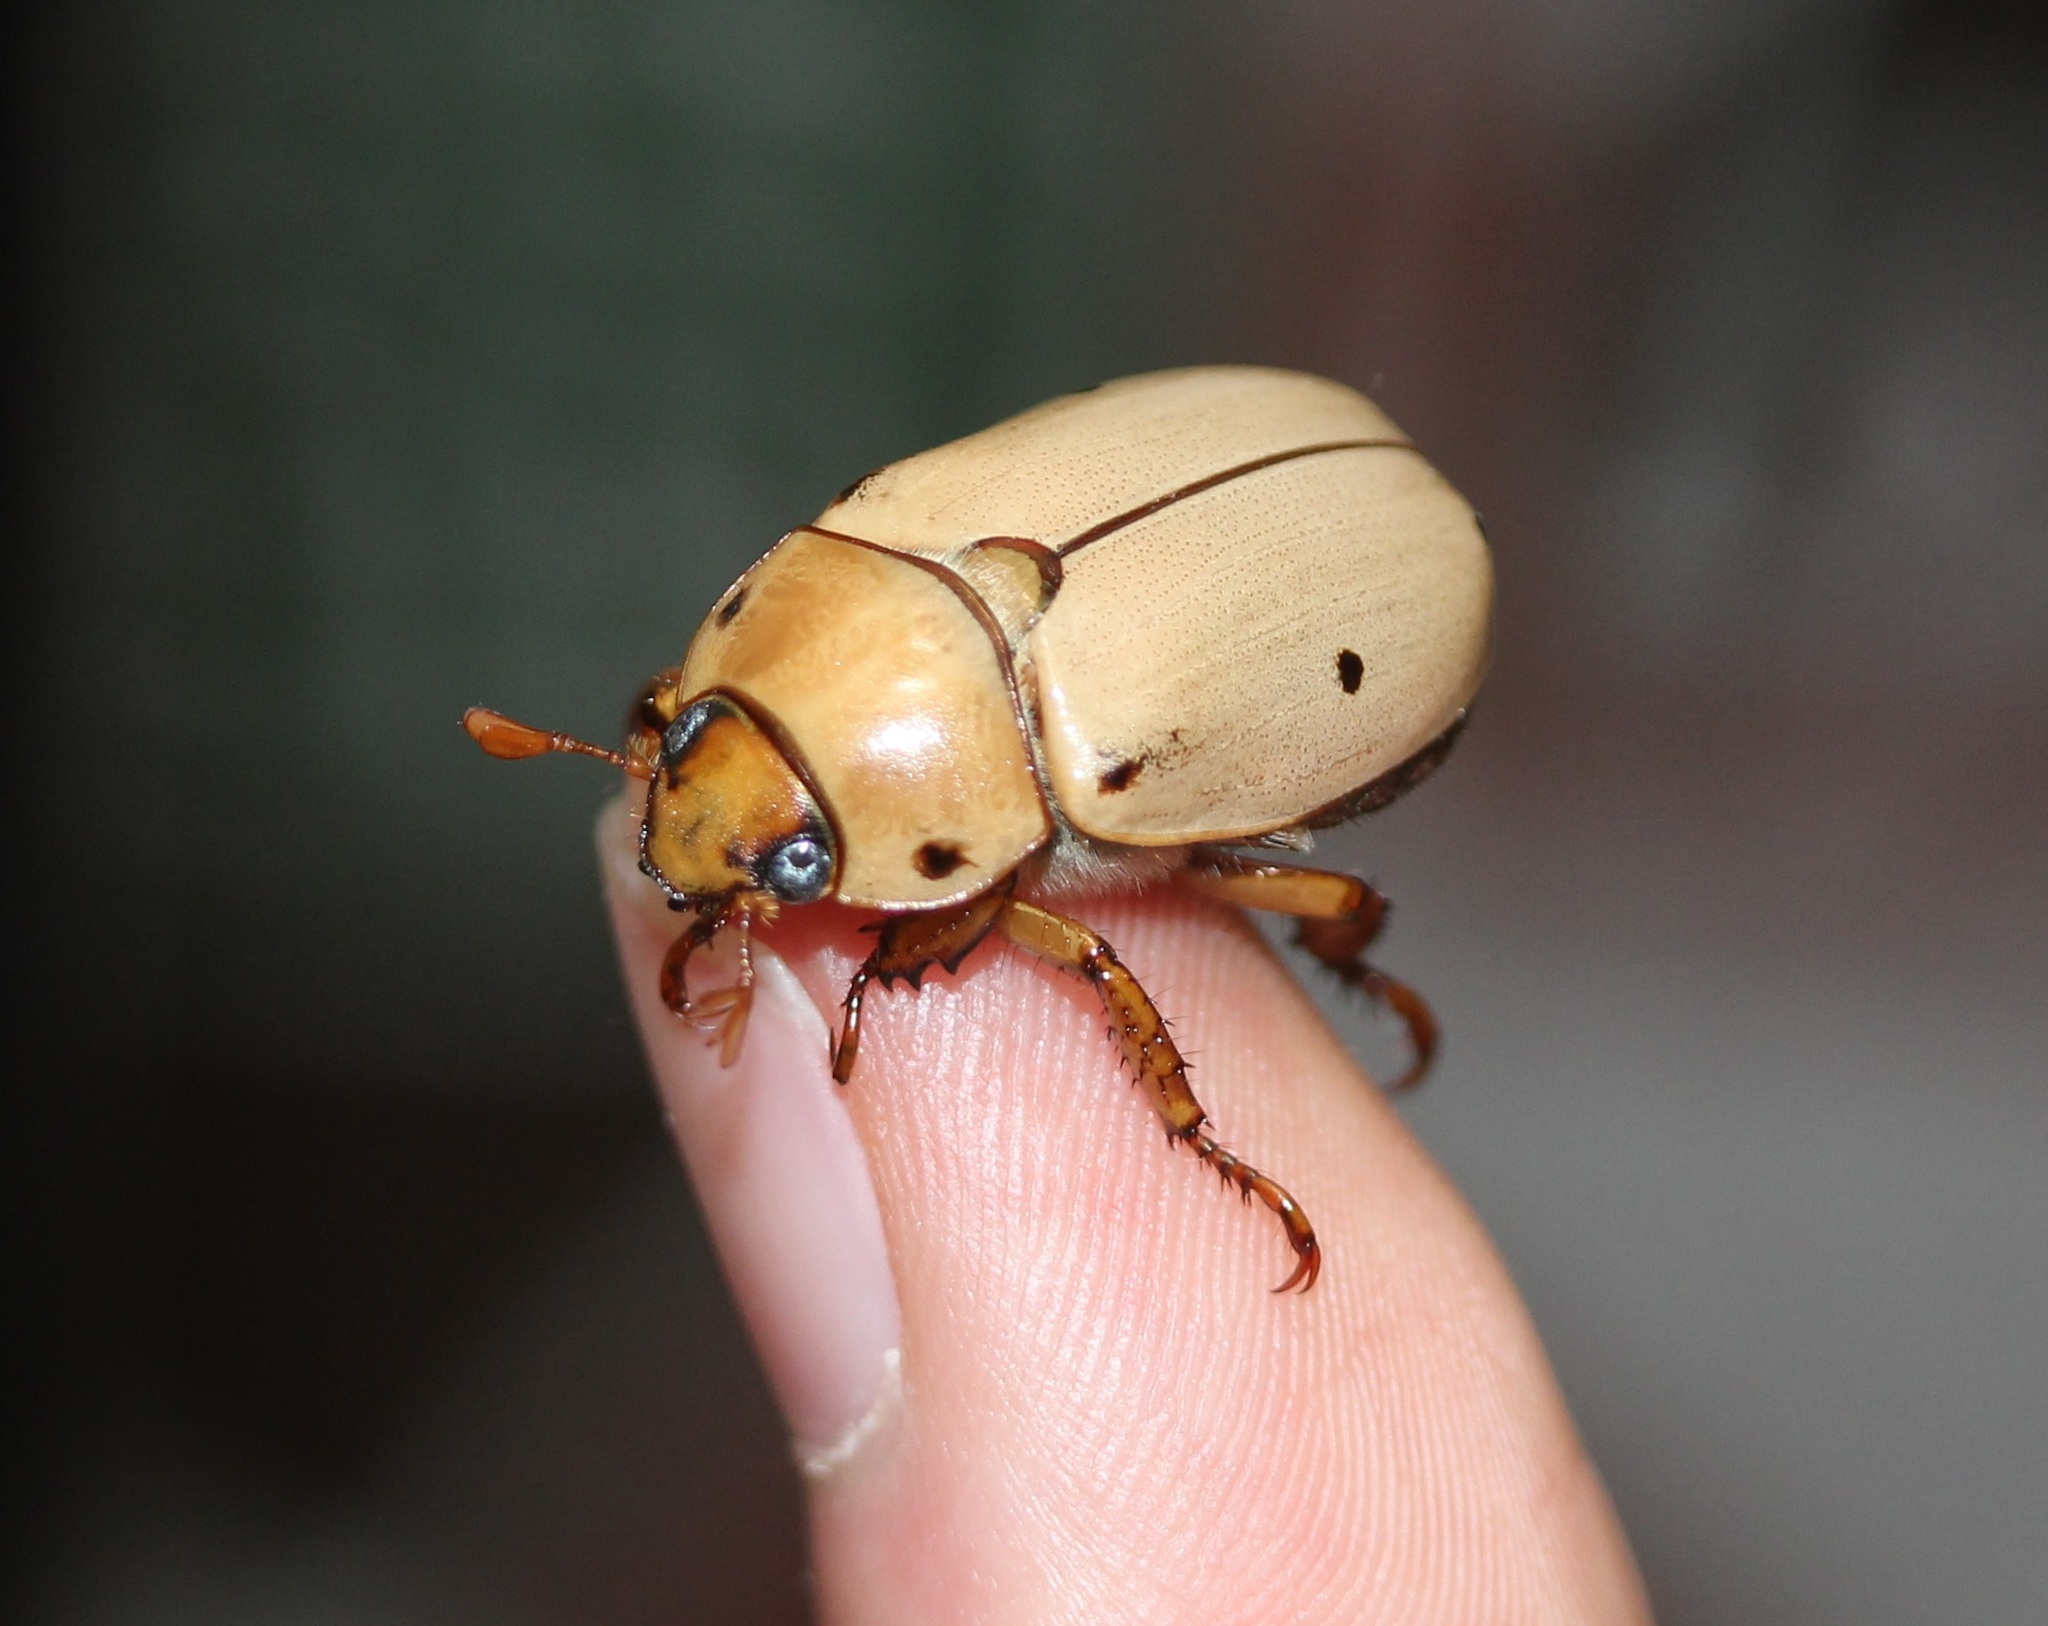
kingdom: Animalia
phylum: Arthropoda
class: Insecta
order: Coleoptera
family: Scarabaeidae
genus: Pelidnota
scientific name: Pelidnota punctata
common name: Grapevine beetle
